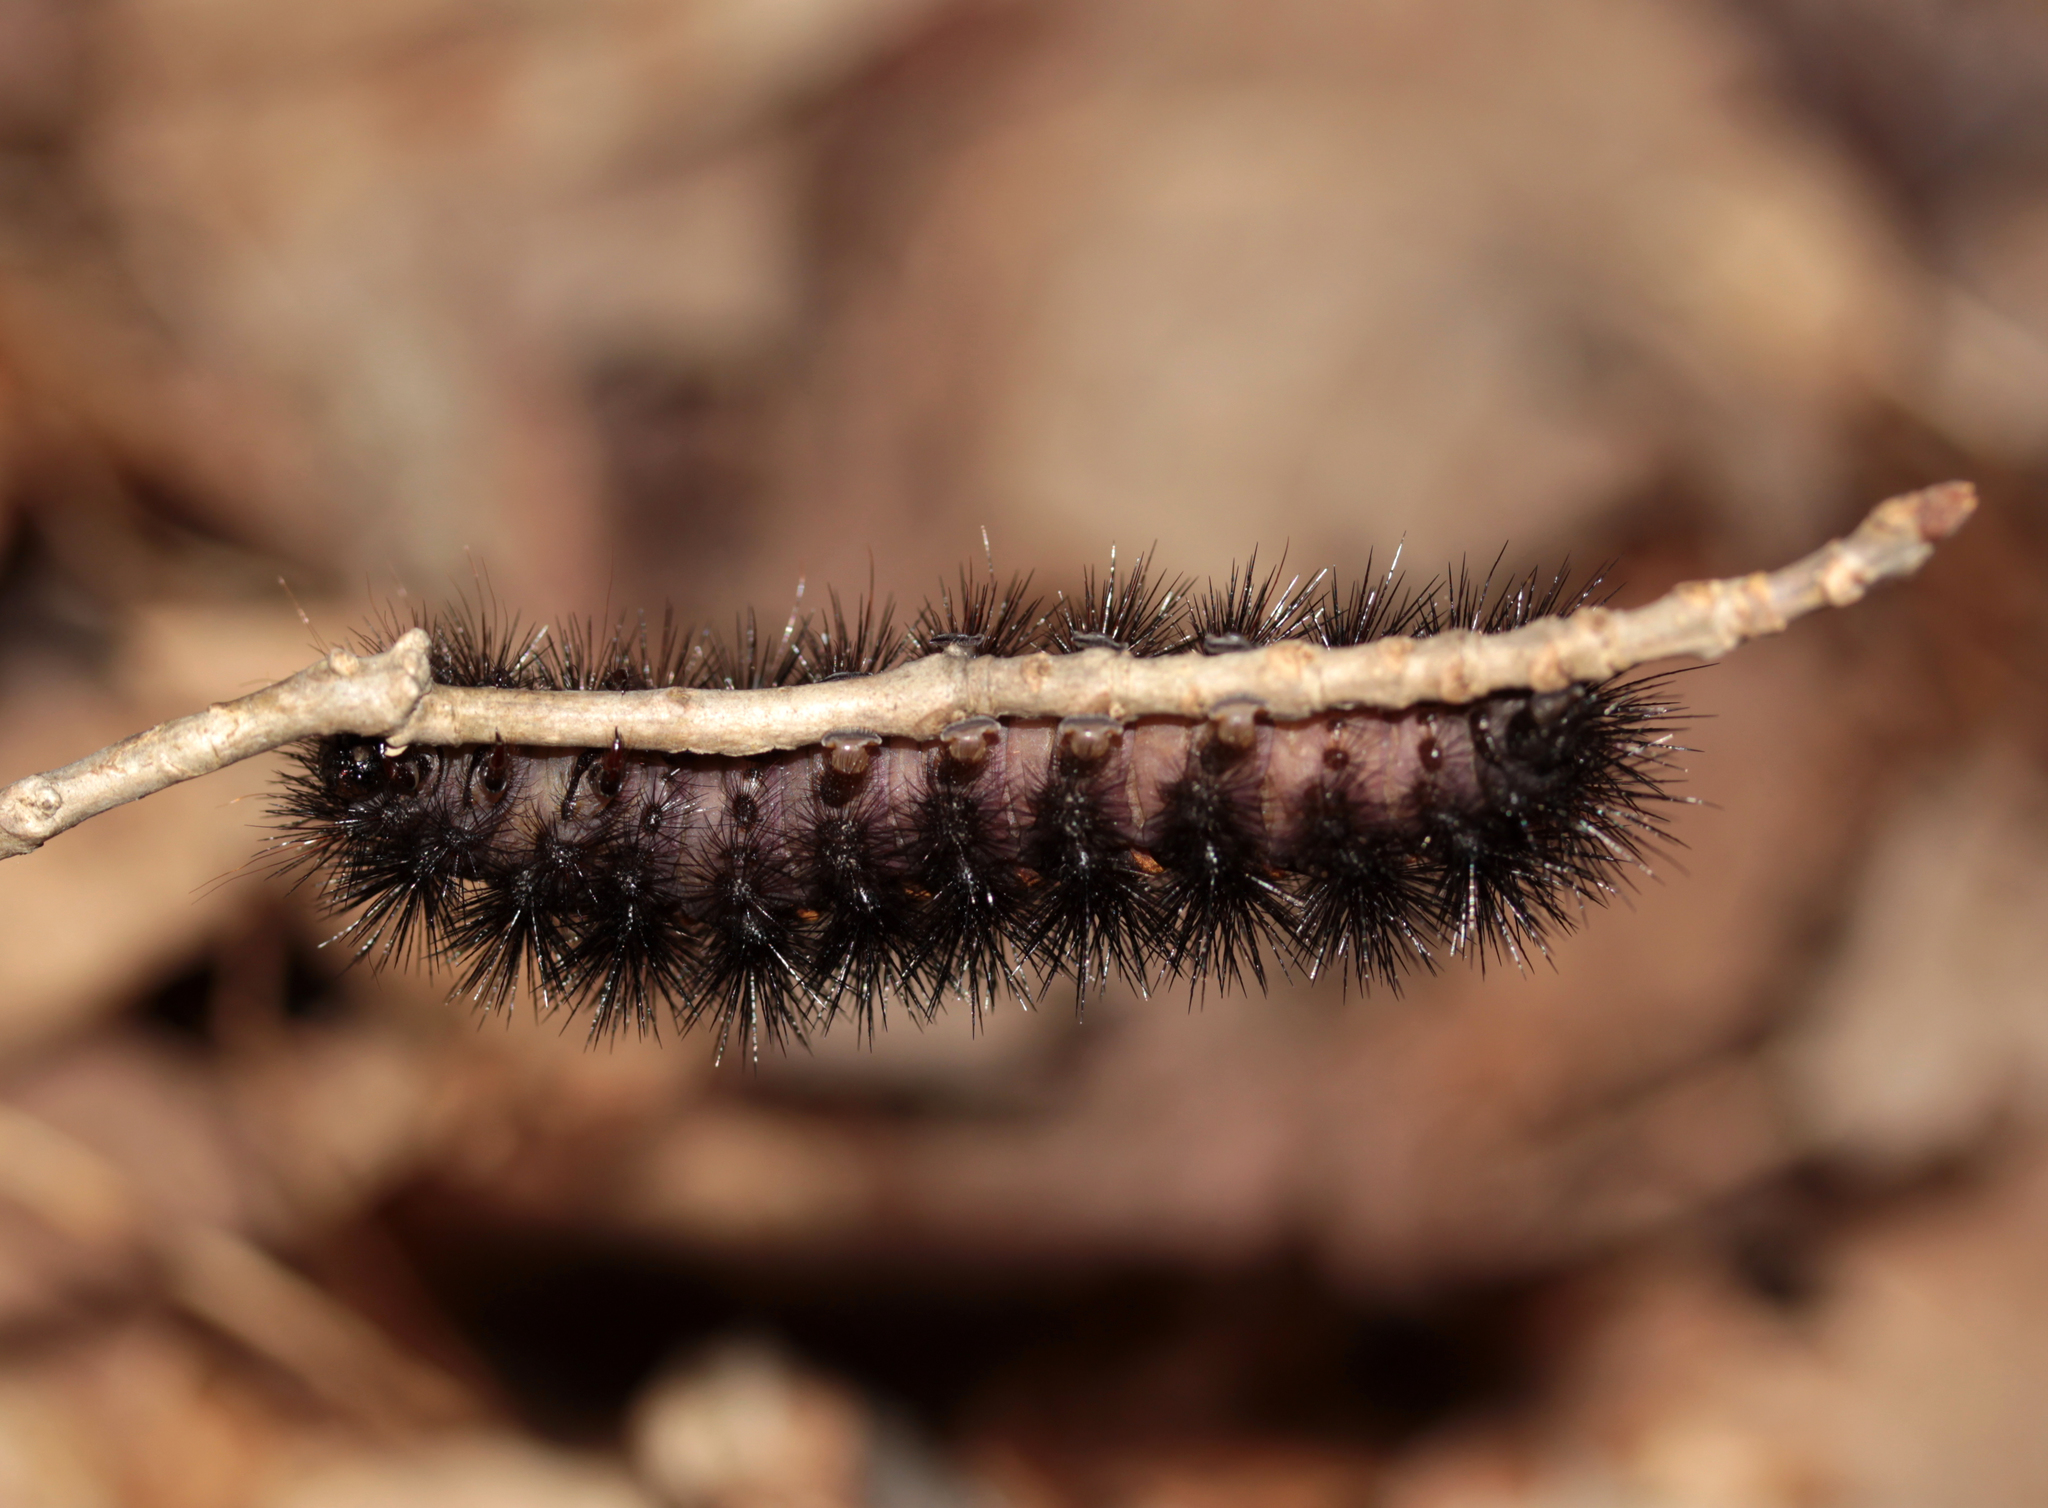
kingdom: Animalia
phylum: Arthropoda
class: Insecta
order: Lepidoptera
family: Erebidae
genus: Hypercompe
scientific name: Hypercompe scribonia
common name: Giant leopard moth
